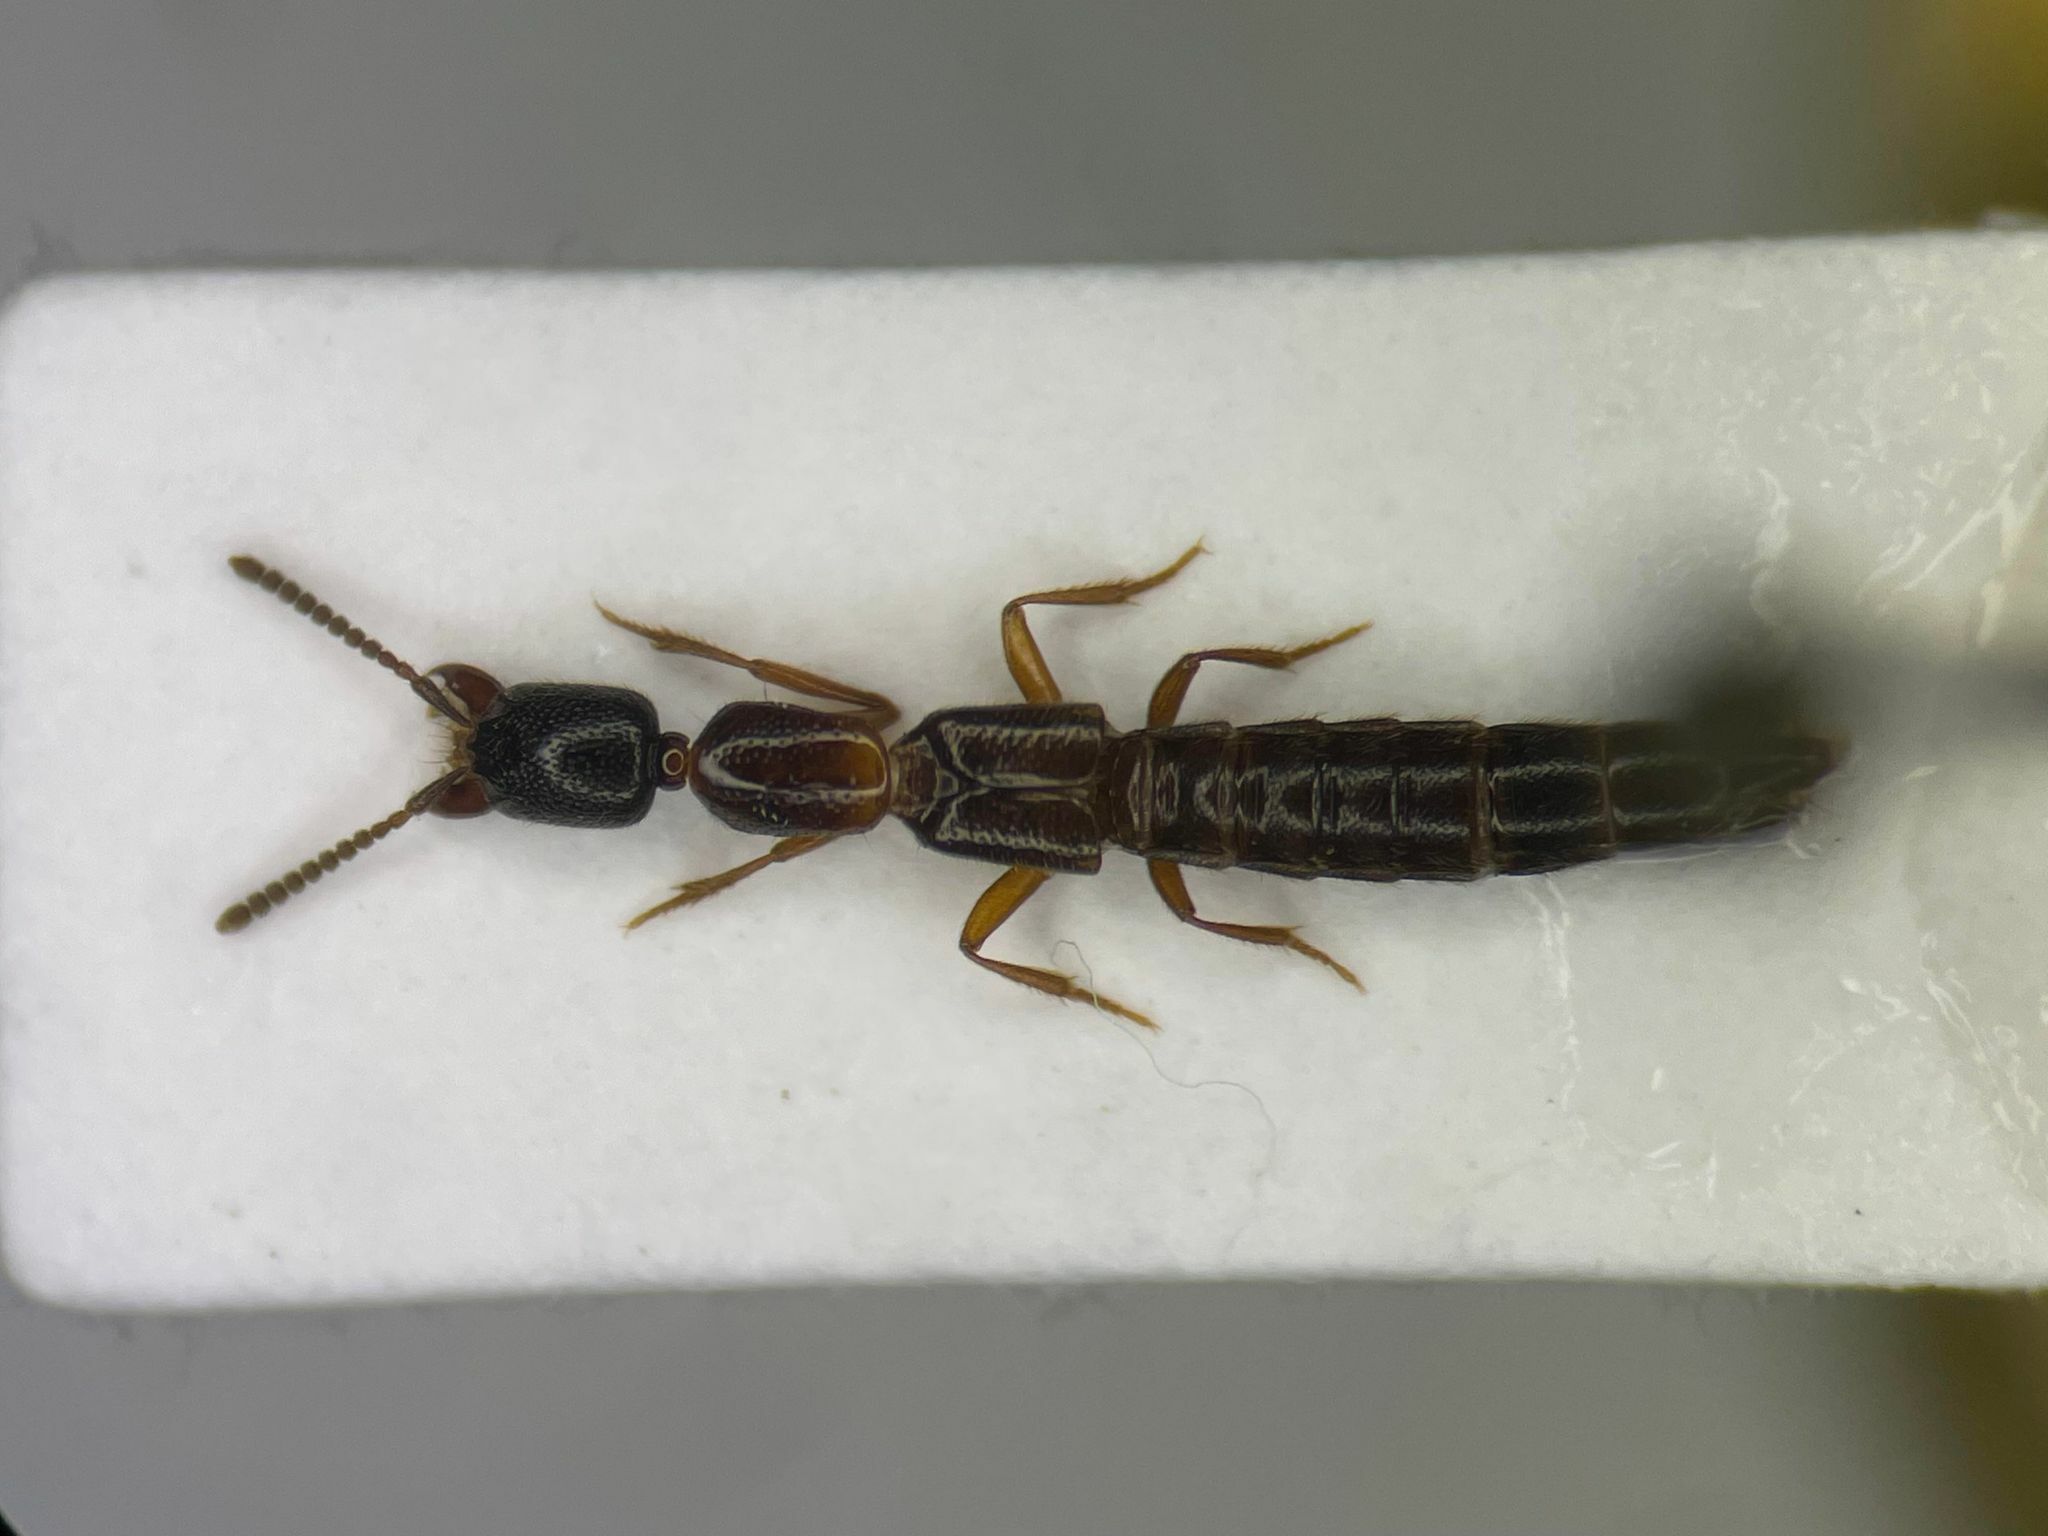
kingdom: Animalia
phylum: Arthropoda
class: Insecta
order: Coleoptera
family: Staphylinidae
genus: Stictolinus
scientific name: Stictolinus flavipes
